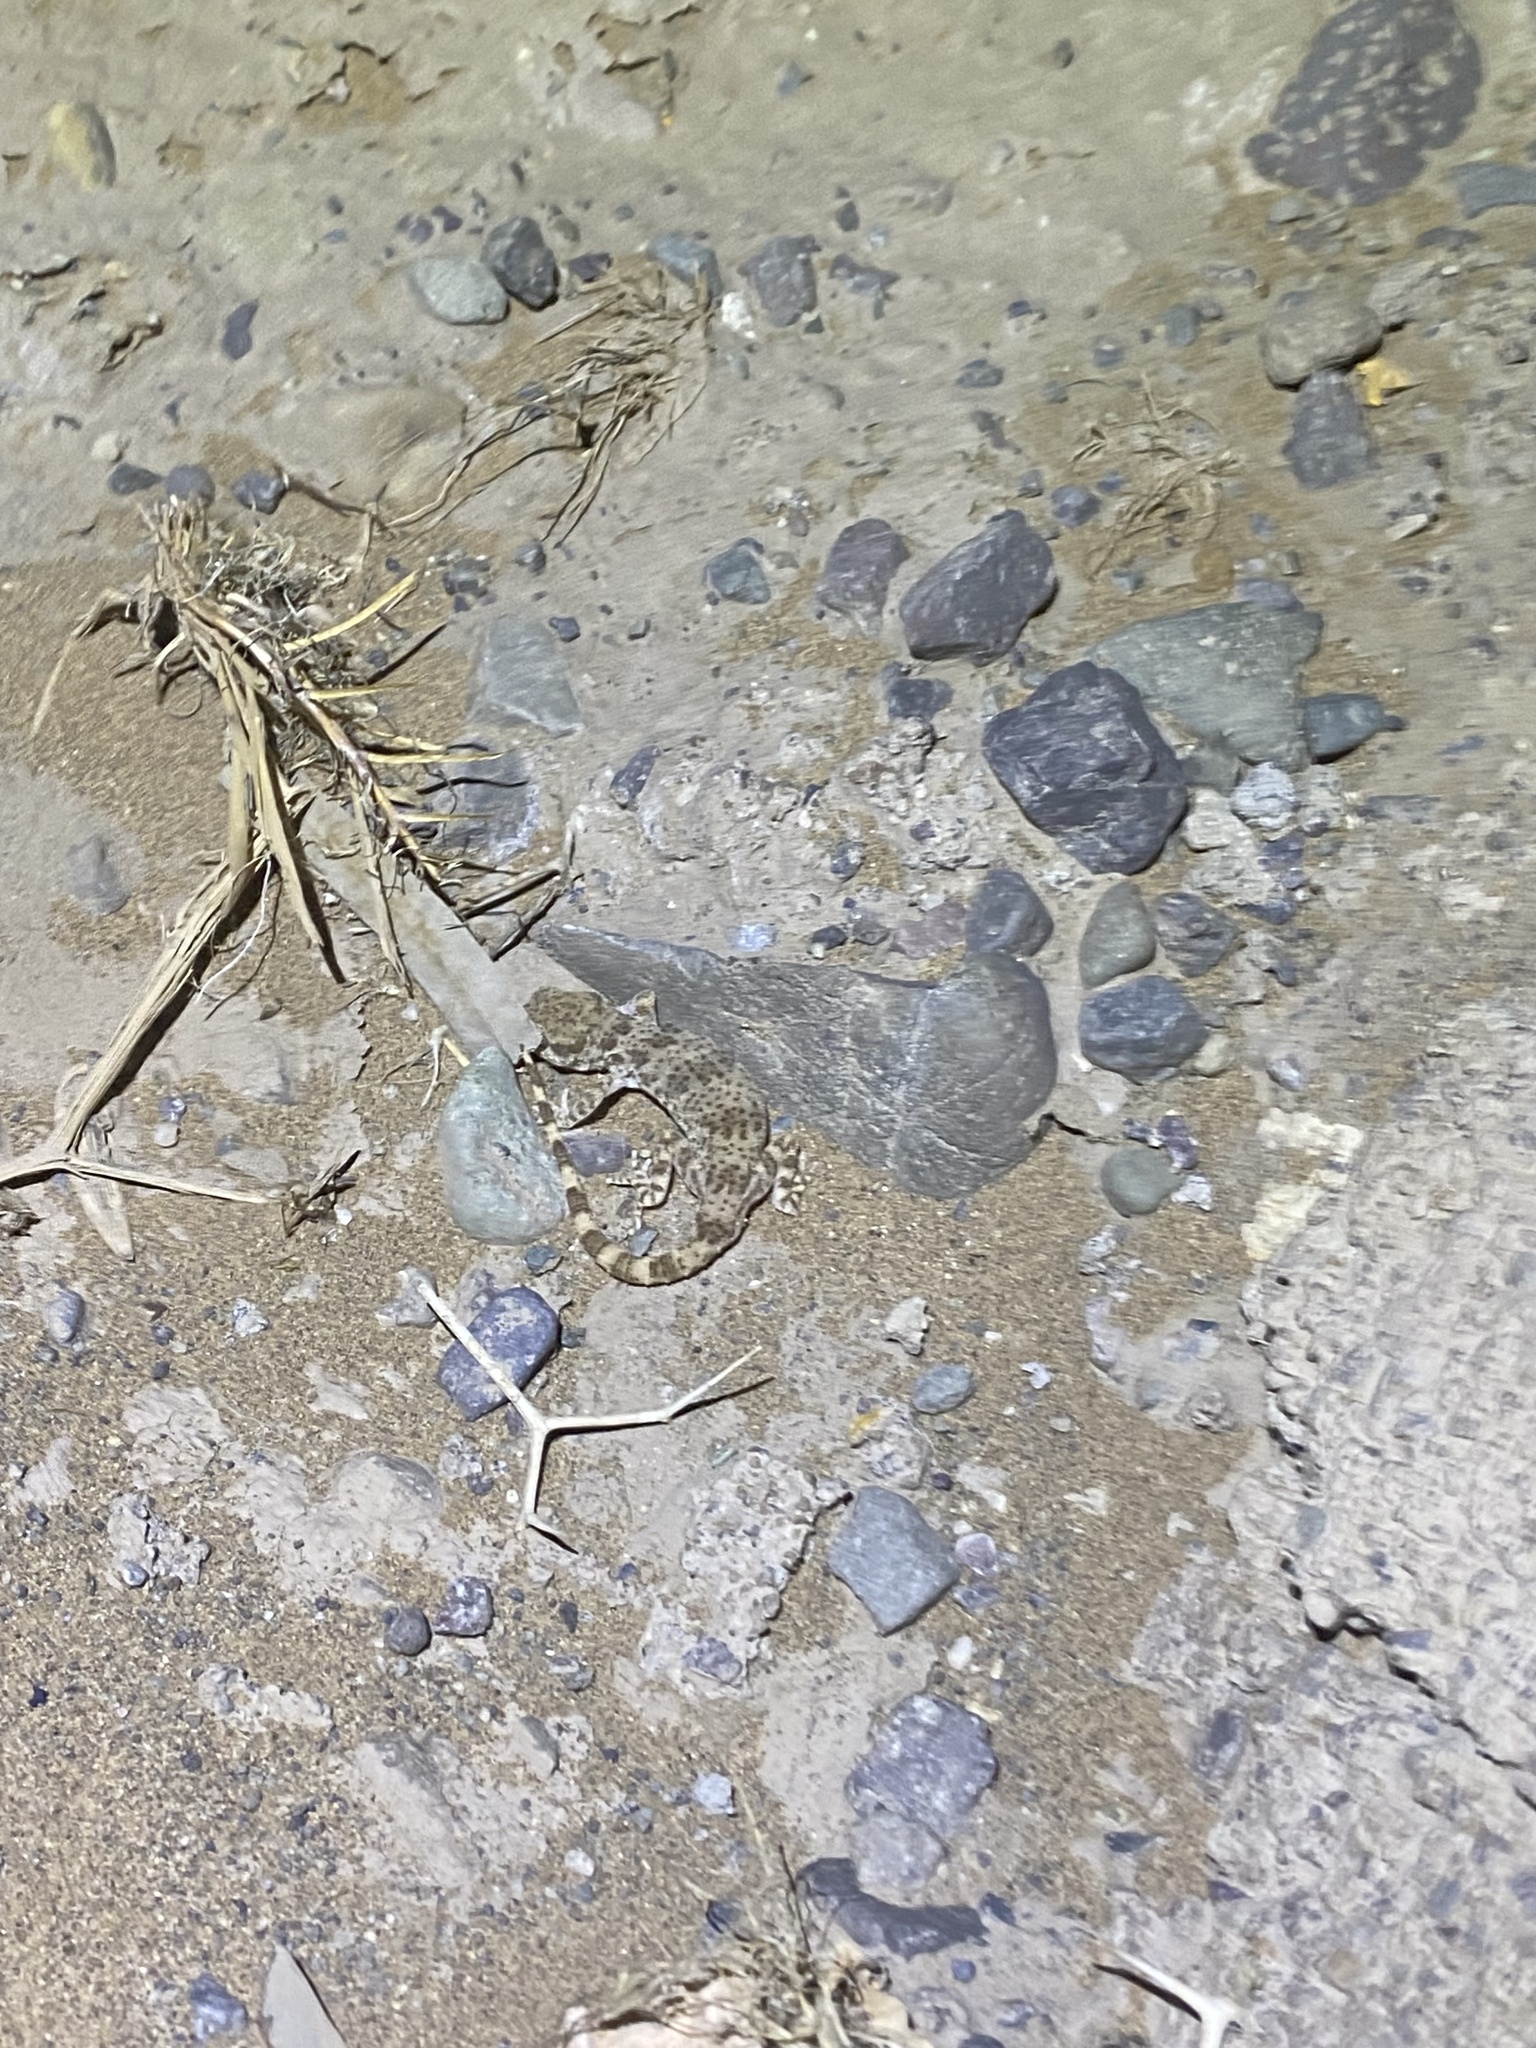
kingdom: Animalia
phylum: Chordata
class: Squamata
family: Gekkonidae
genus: Bunopus
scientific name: Bunopus crassicauda
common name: Thick-tailed tuberculated gecko
